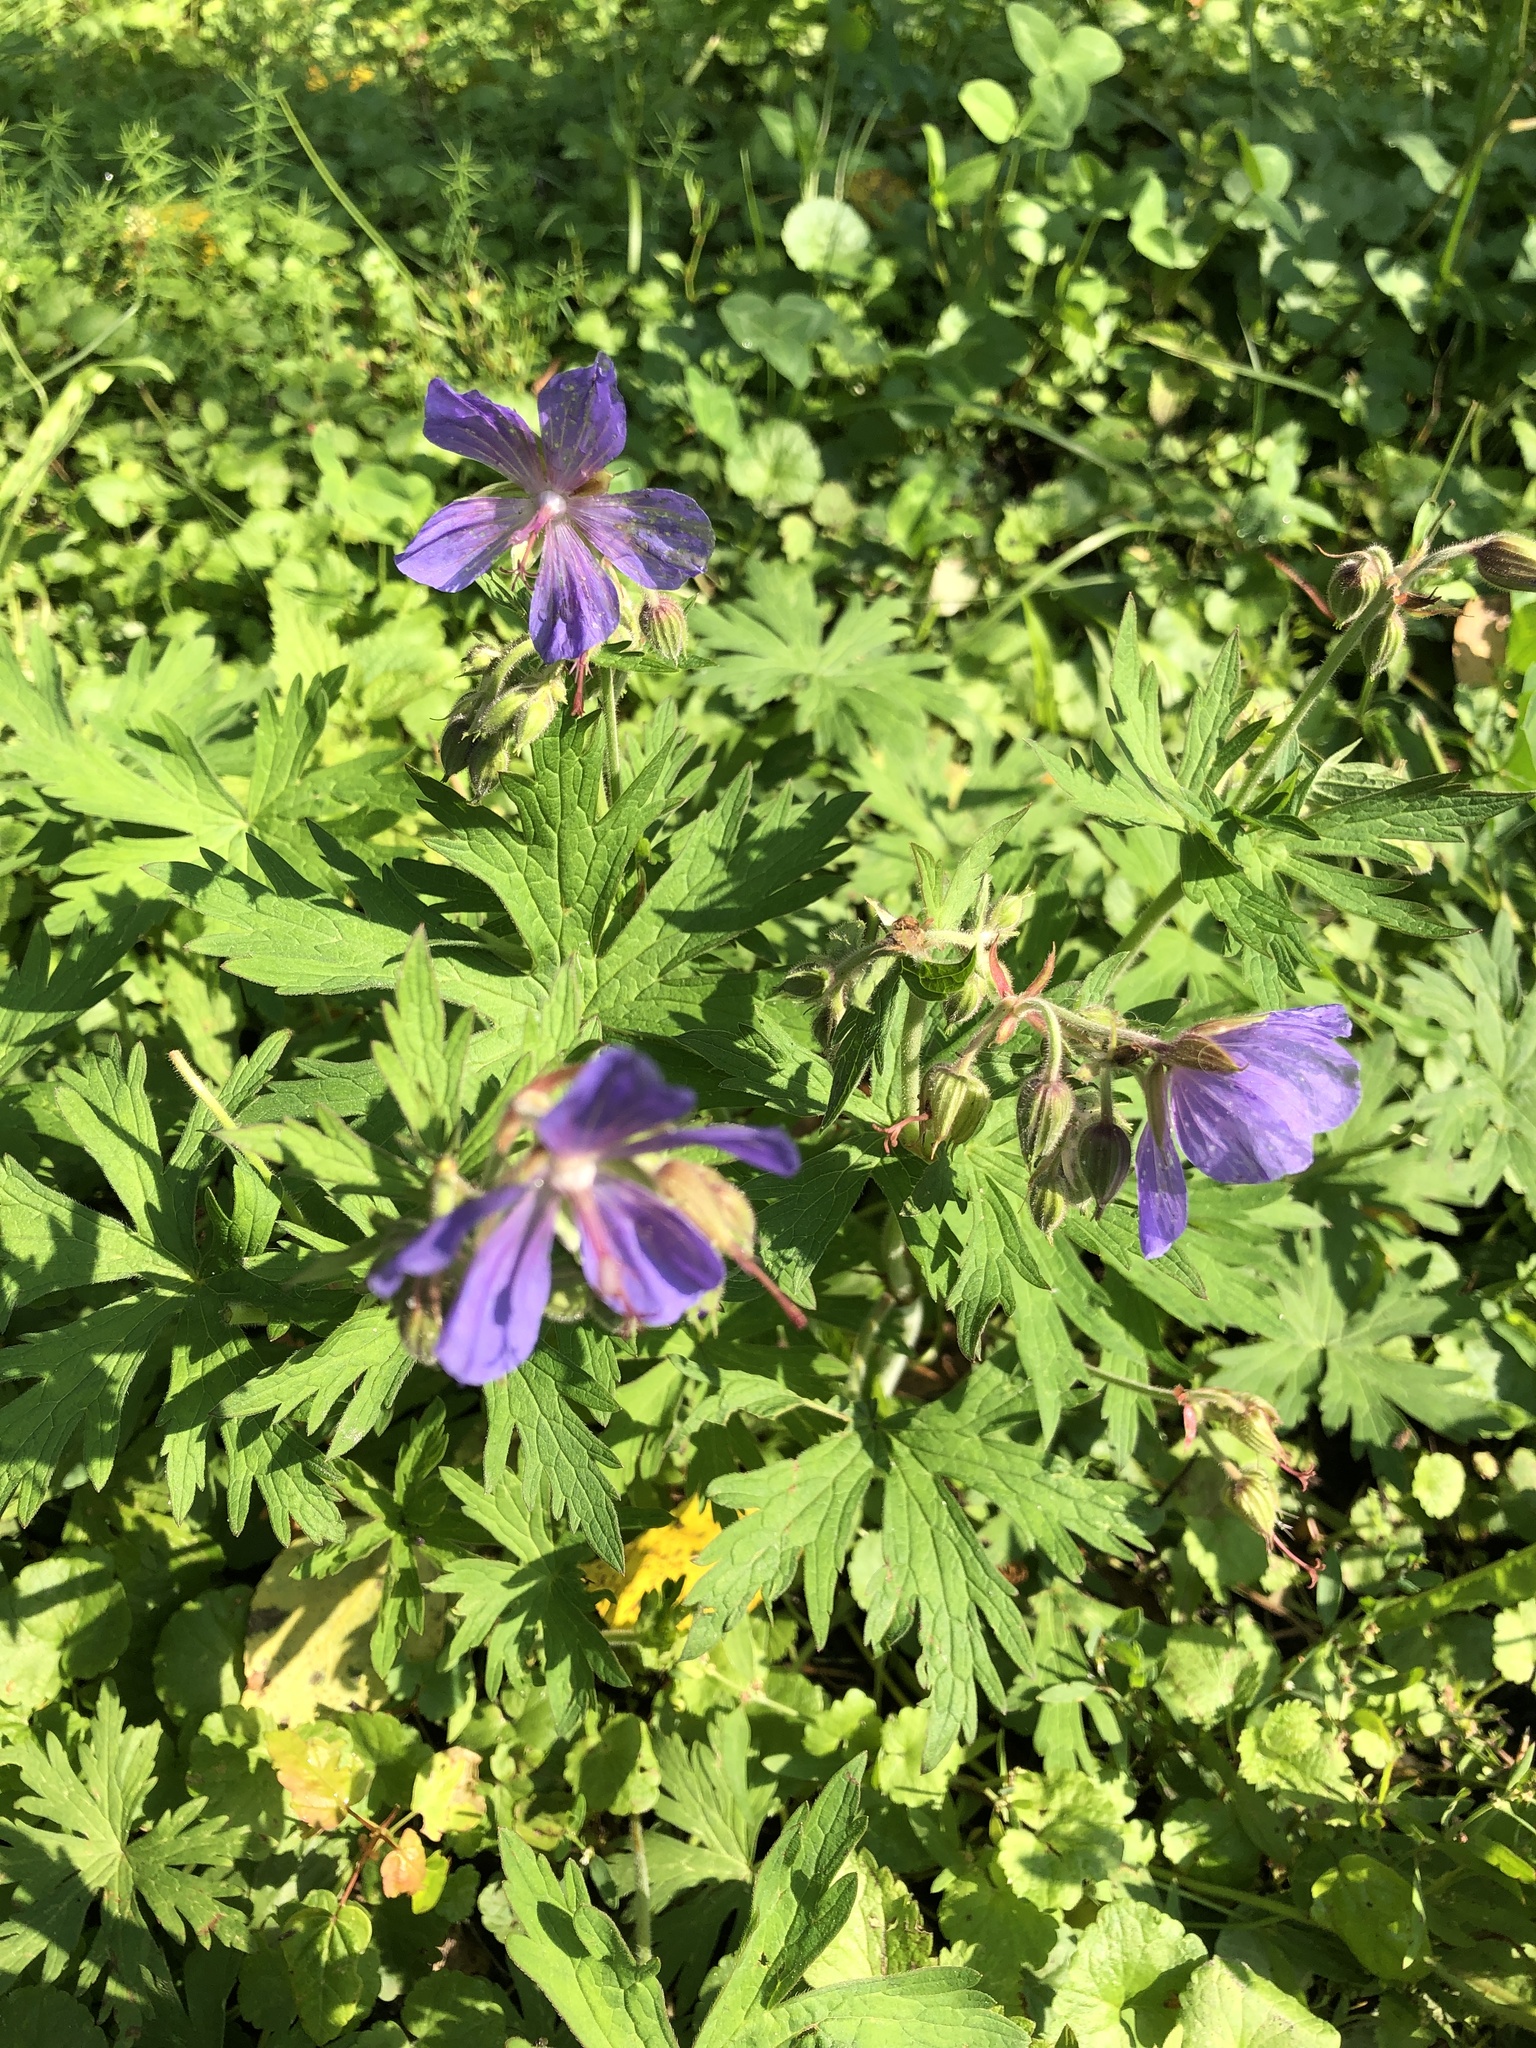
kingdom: Plantae
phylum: Tracheophyta
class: Magnoliopsida
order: Geraniales
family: Geraniaceae
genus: Geranium
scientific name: Geranium pratense
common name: Meadow crane's-bill
